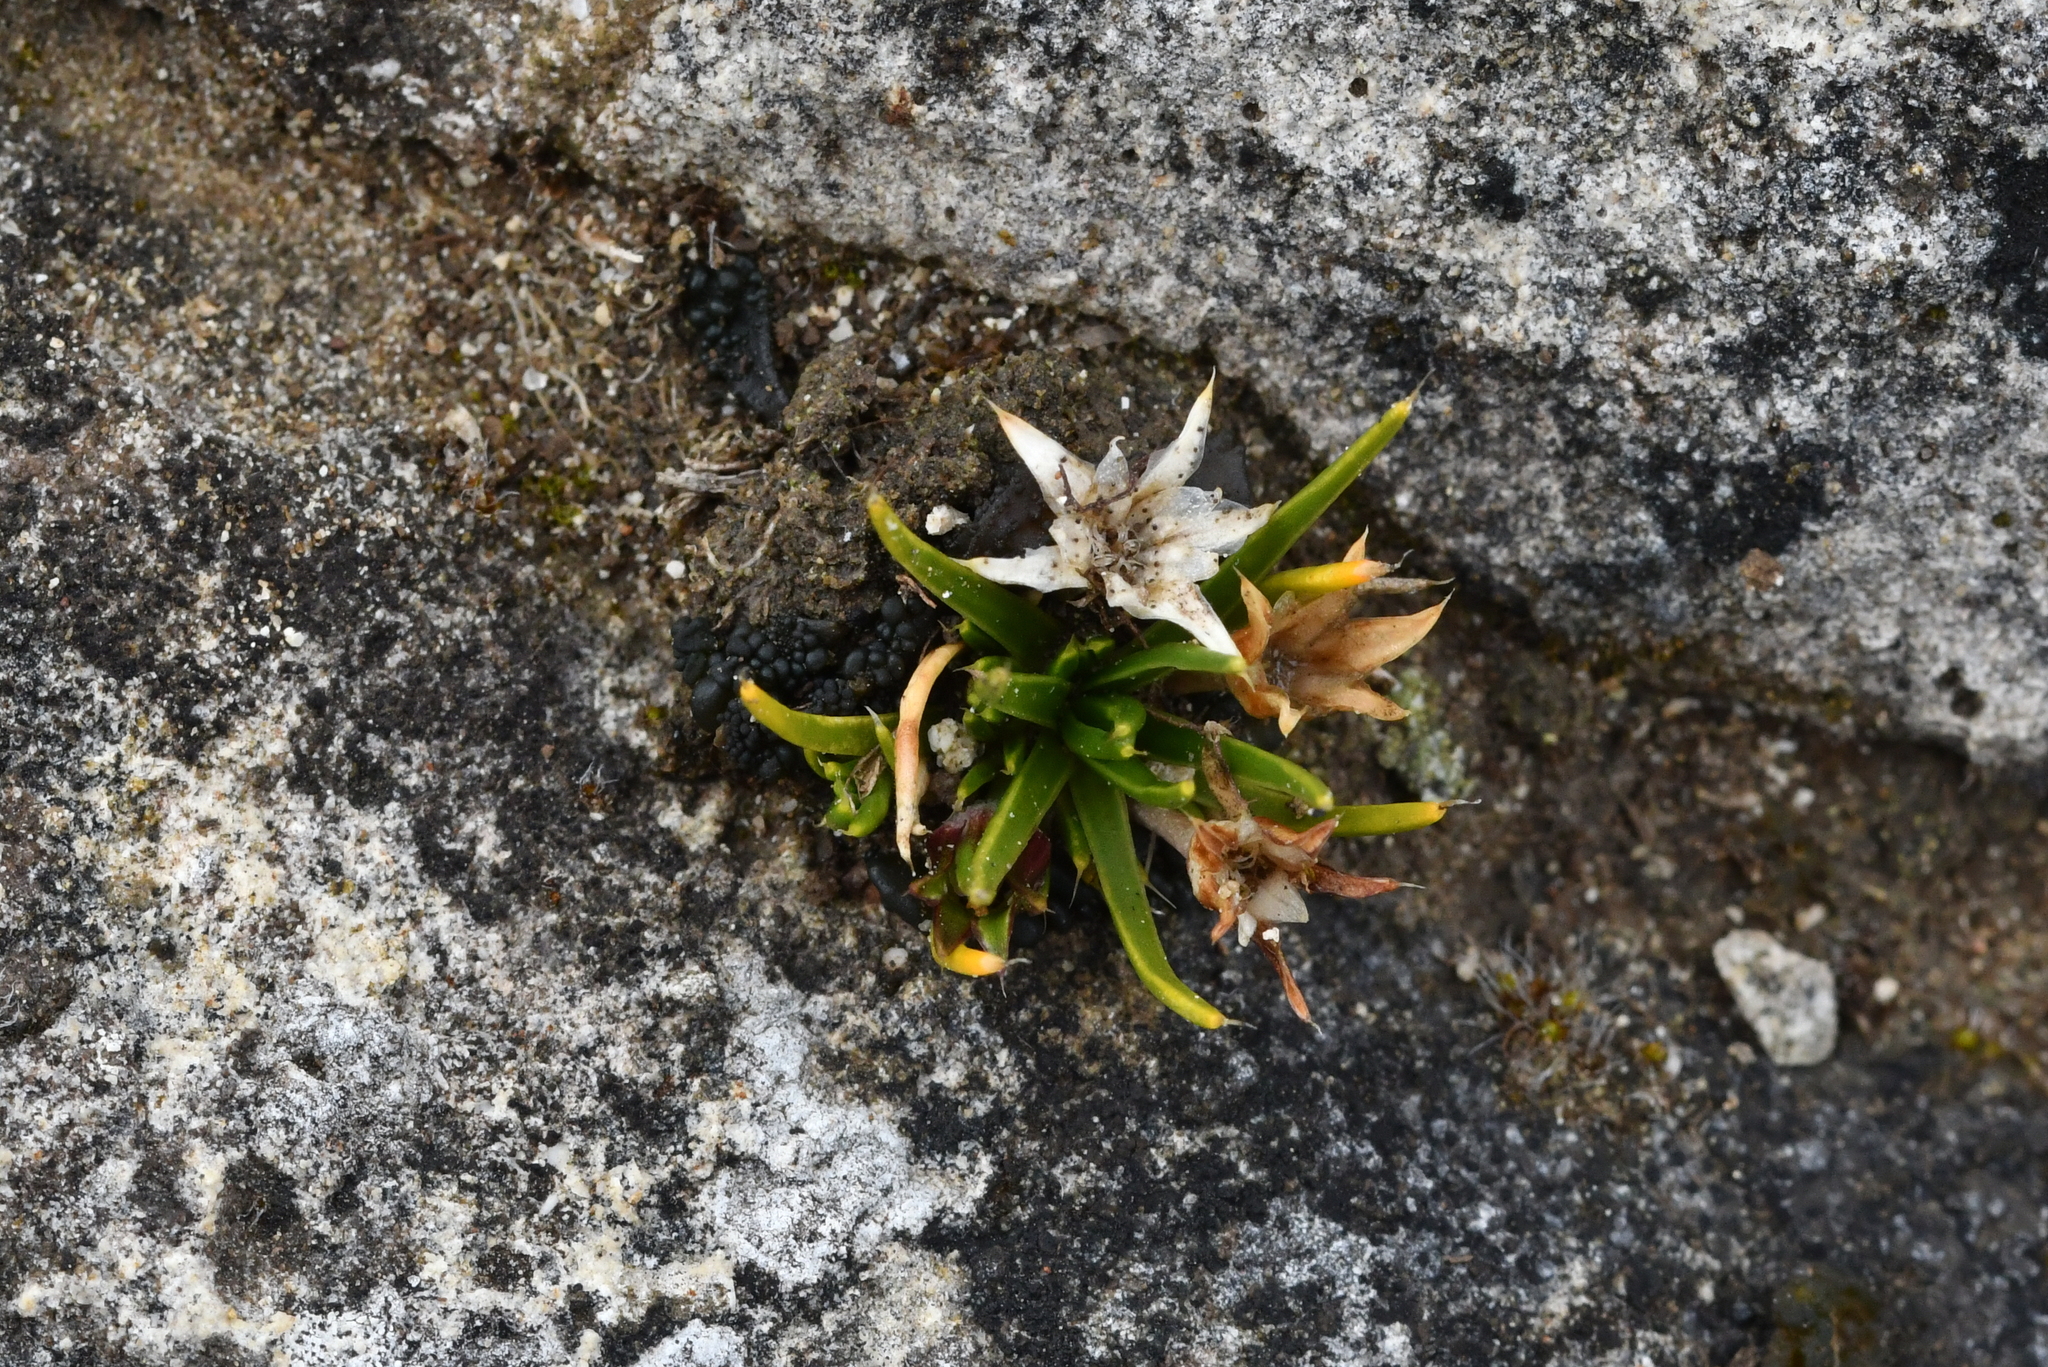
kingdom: Plantae
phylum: Tracheophyta
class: Magnoliopsida
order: Caryophyllales
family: Caryophyllaceae
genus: Colobanthus
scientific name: Colobanthus strictus
